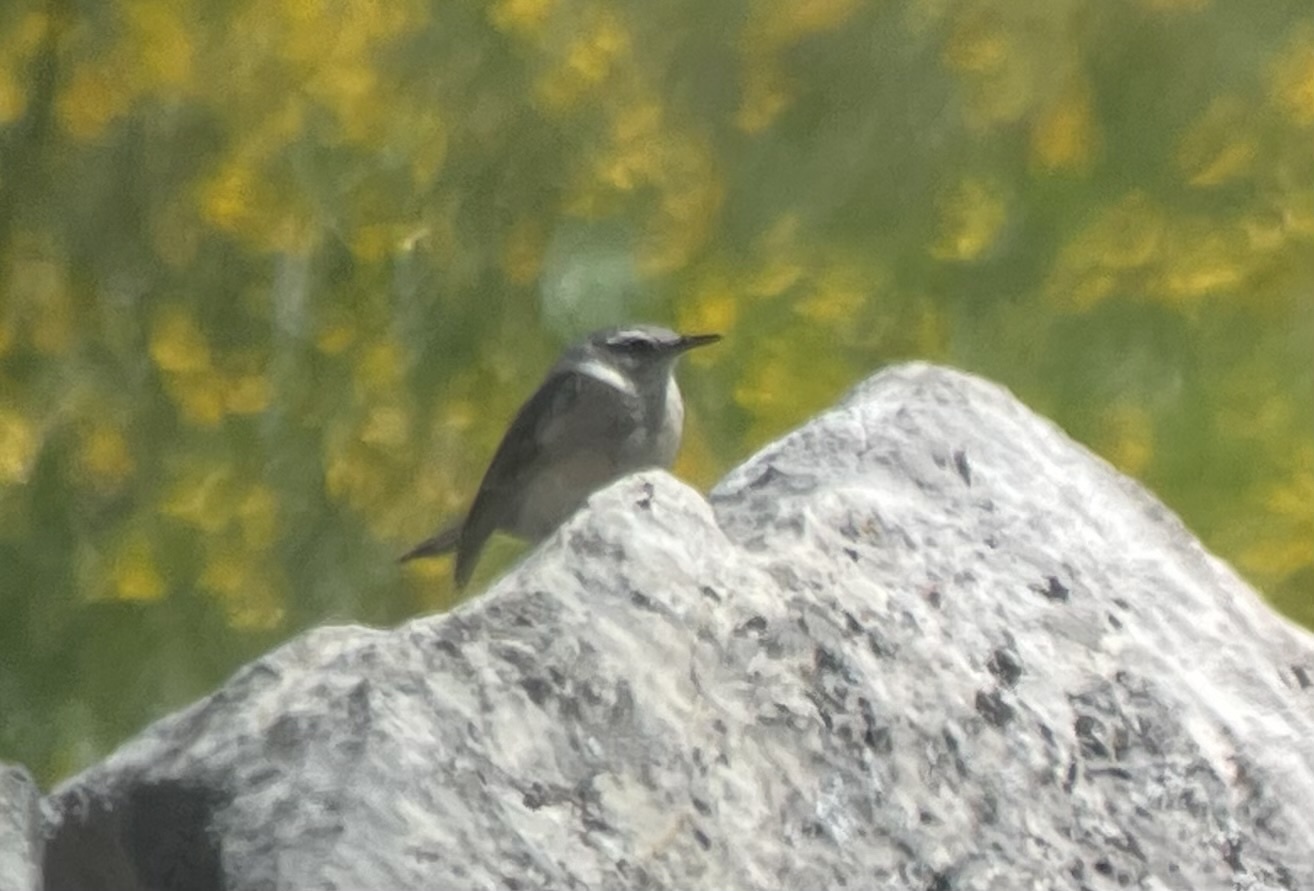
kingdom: Animalia
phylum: Chordata
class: Aves
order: Passeriformes
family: Motacillidae
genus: Anthus
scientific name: Anthus spinoletta
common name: Water pipit
